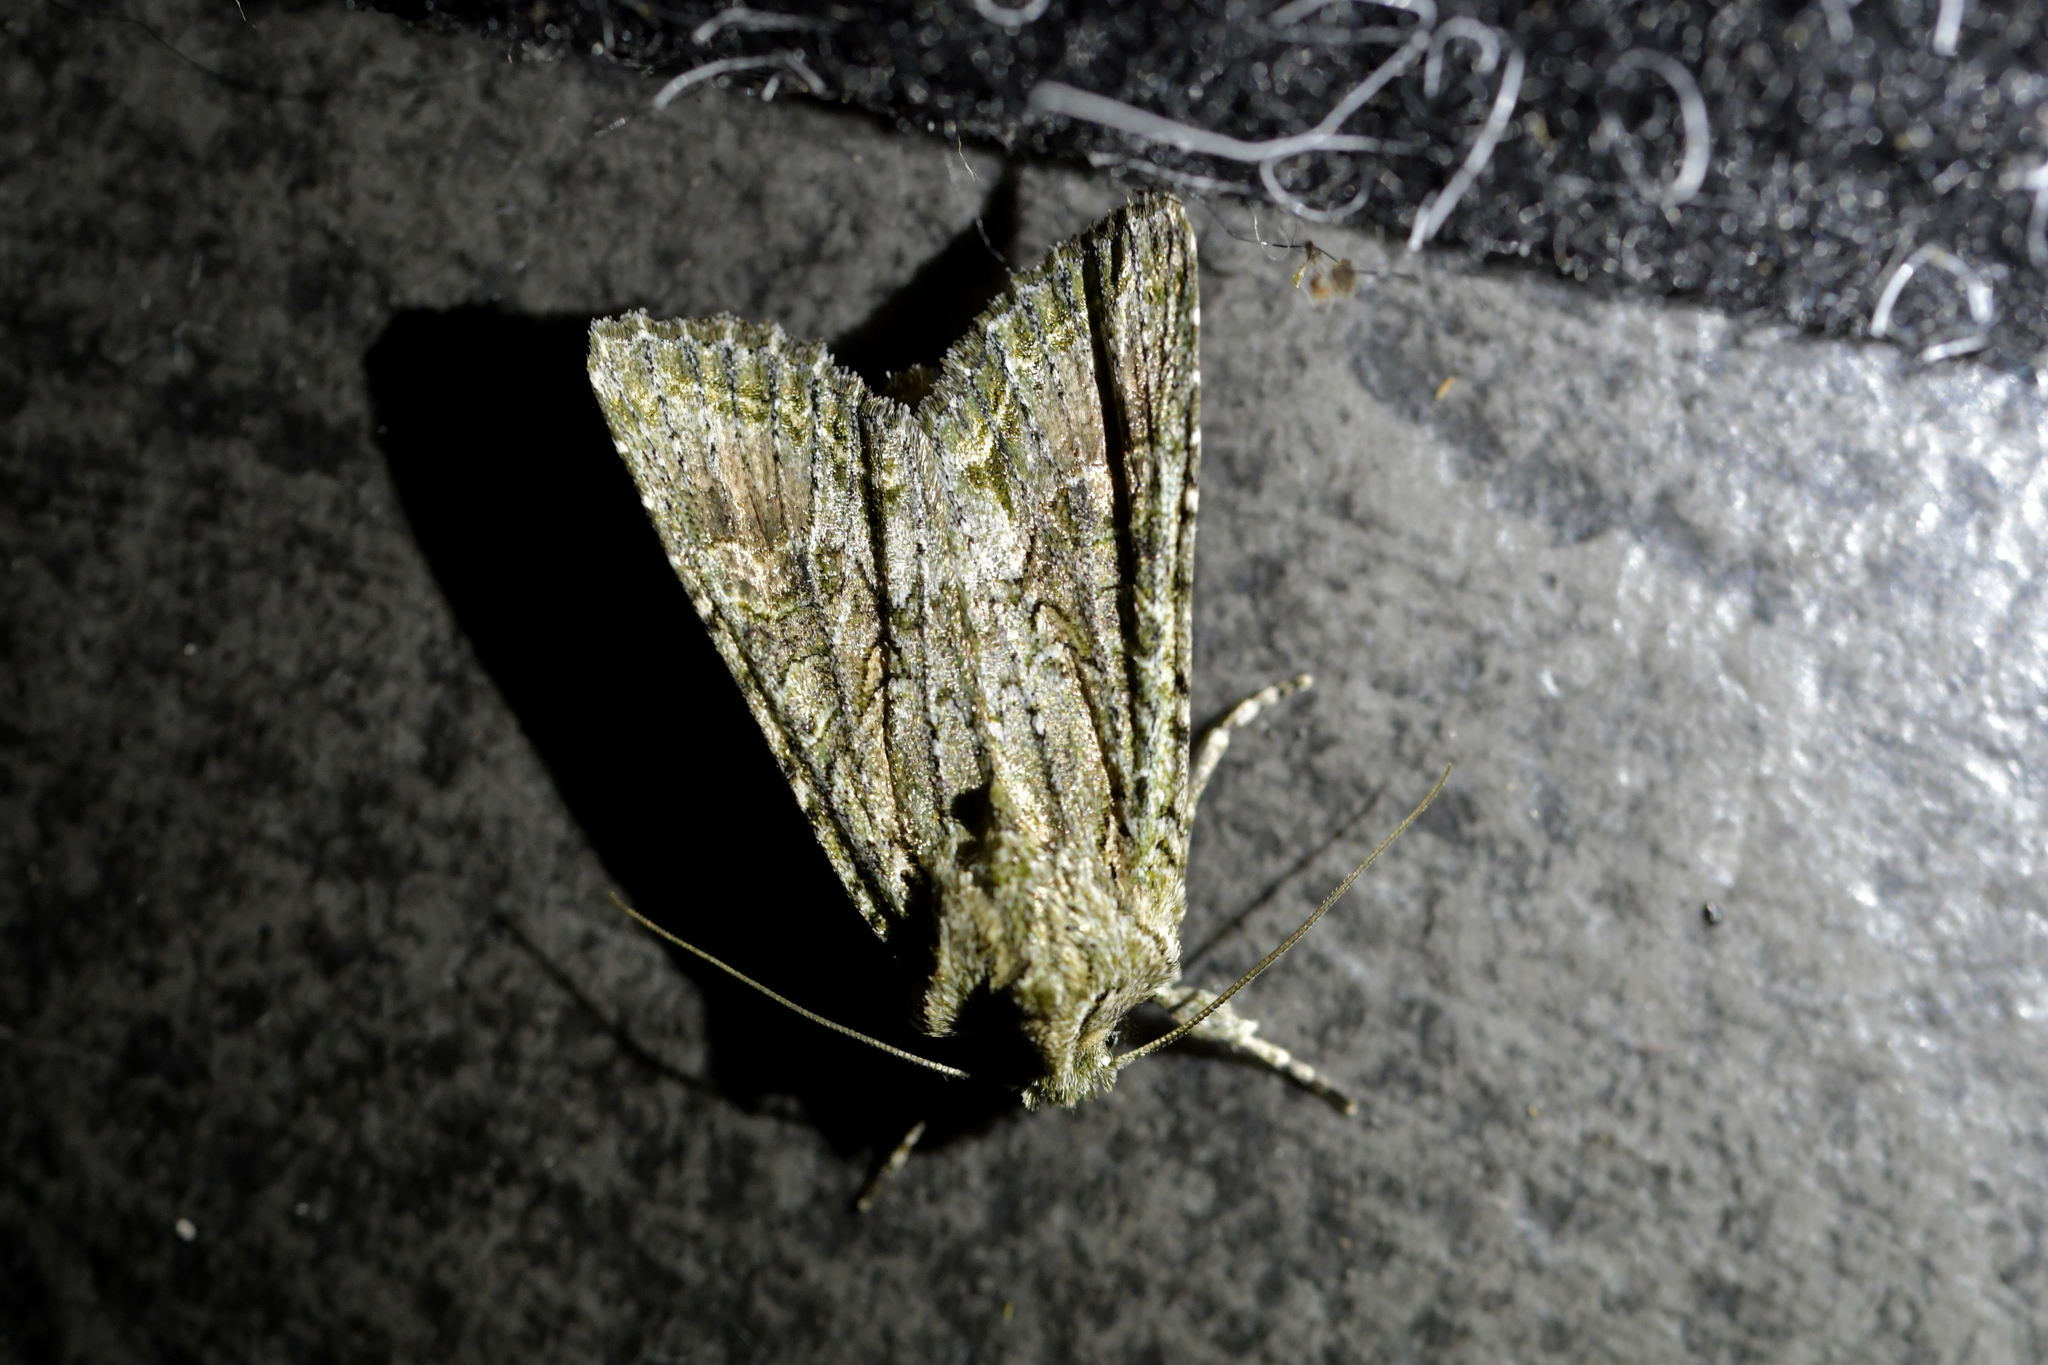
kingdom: Animalia
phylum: Arthropoda
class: Insecta
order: Lepidoptera
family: Noctuidae
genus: Ichneutica
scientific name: Ichneutica mutans
